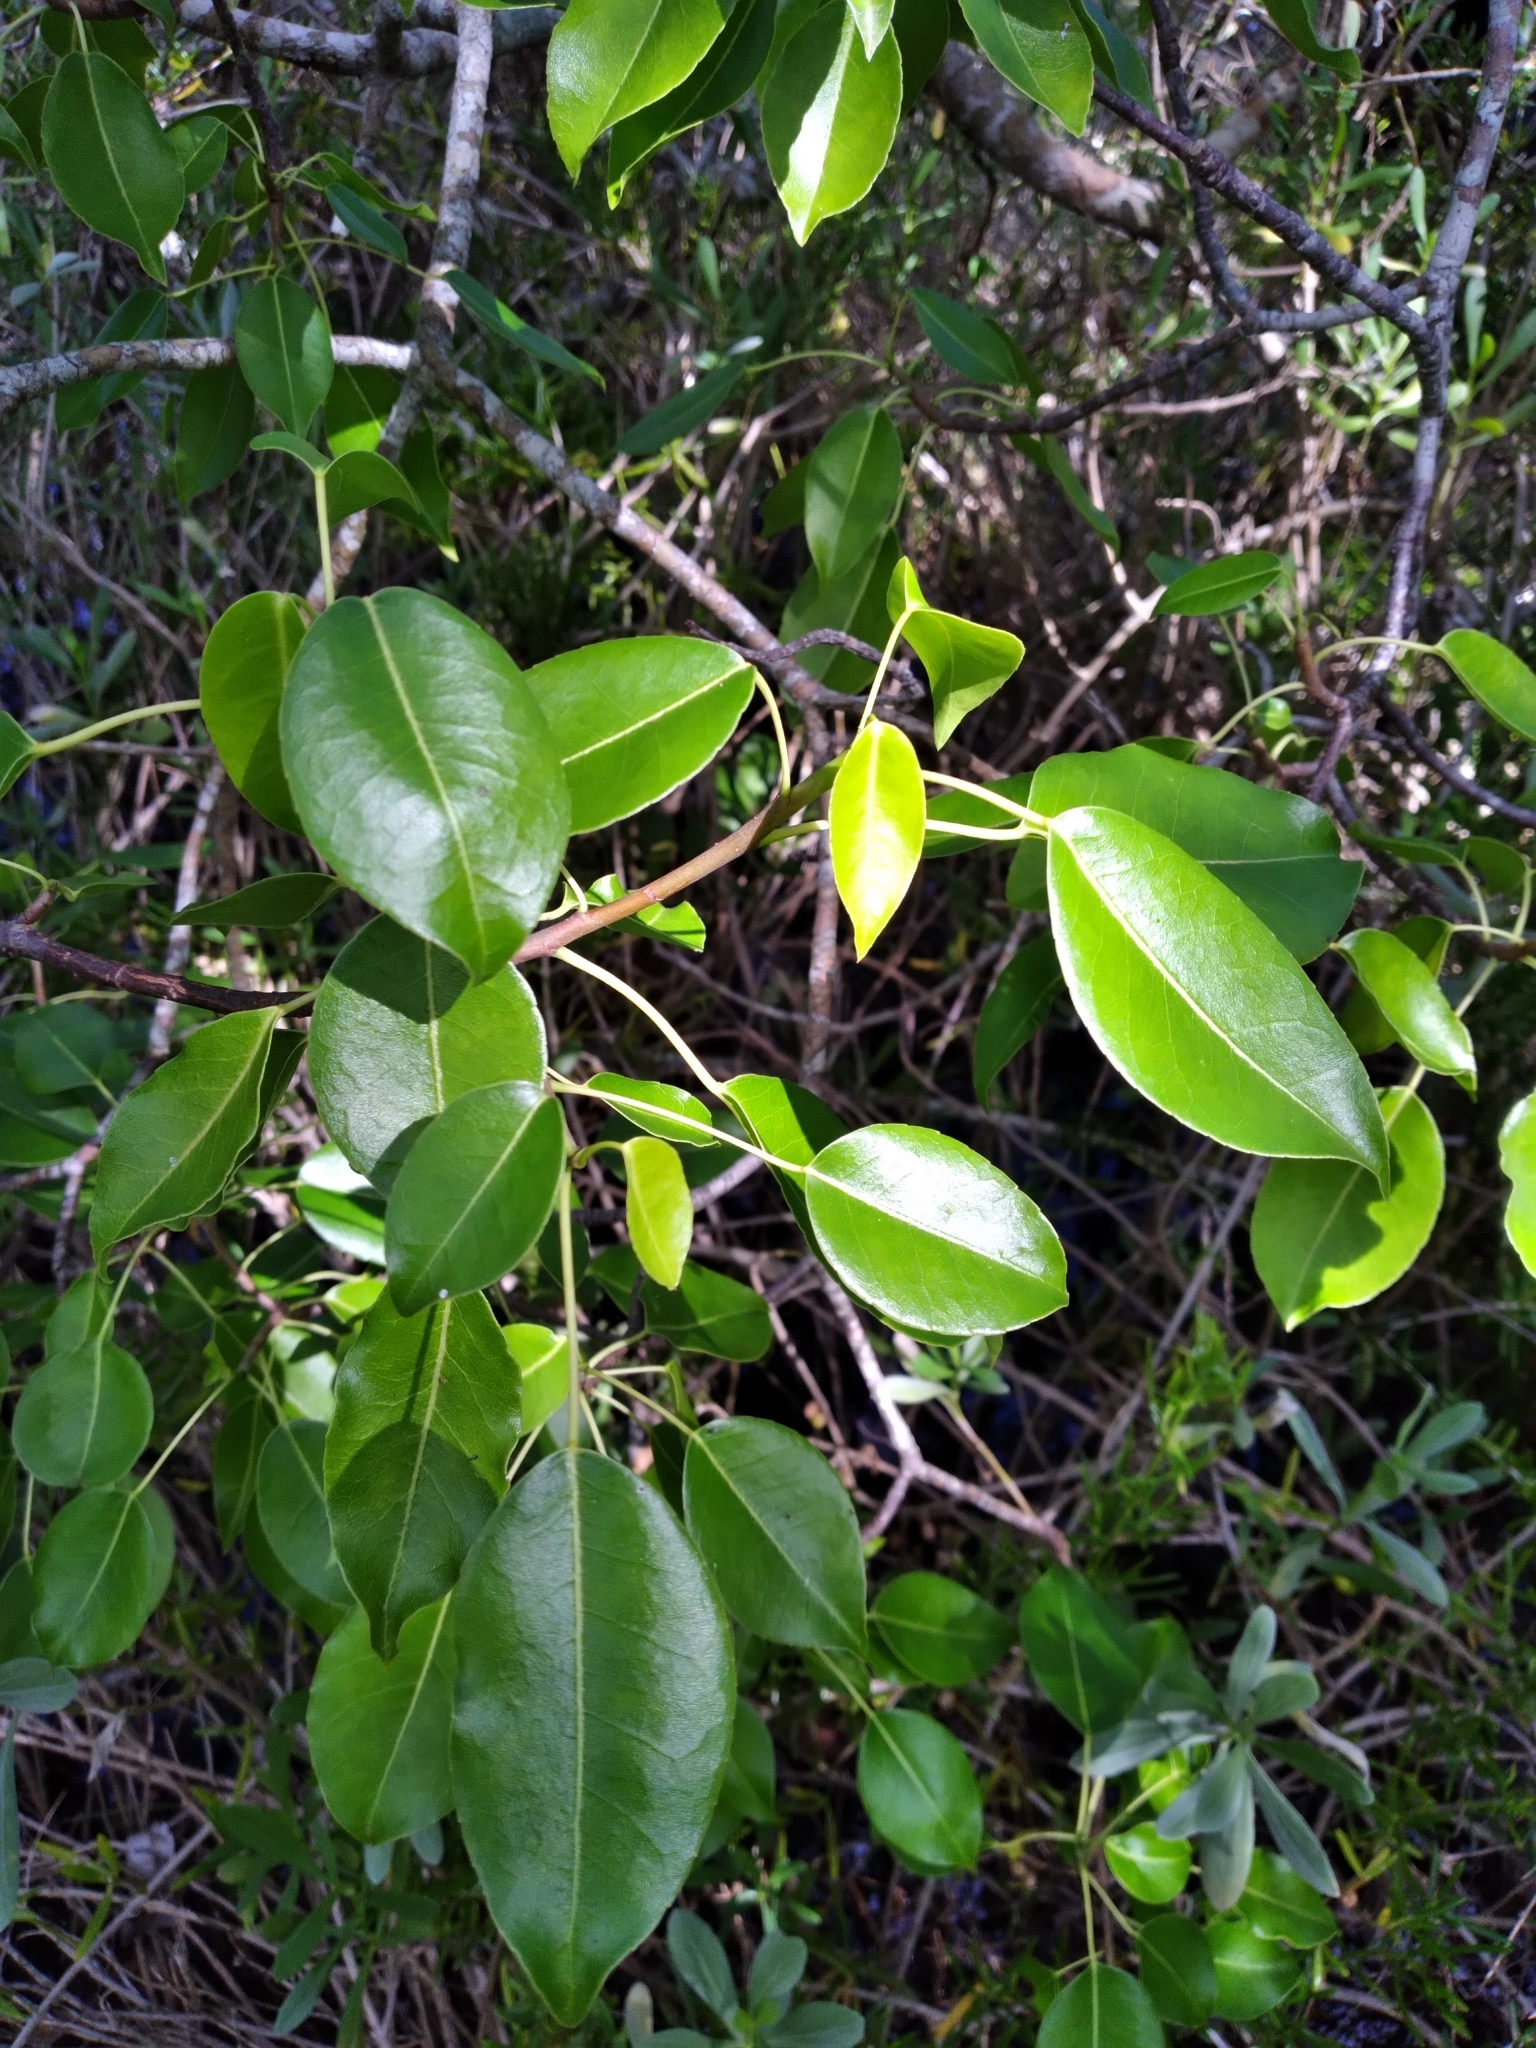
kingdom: Plantae
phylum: Tracheophyta
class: Magnoliopsida
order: Malpighiales
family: Euphorbiaceae
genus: Hippomane
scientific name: Hippomane mancinella
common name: Manchineel
